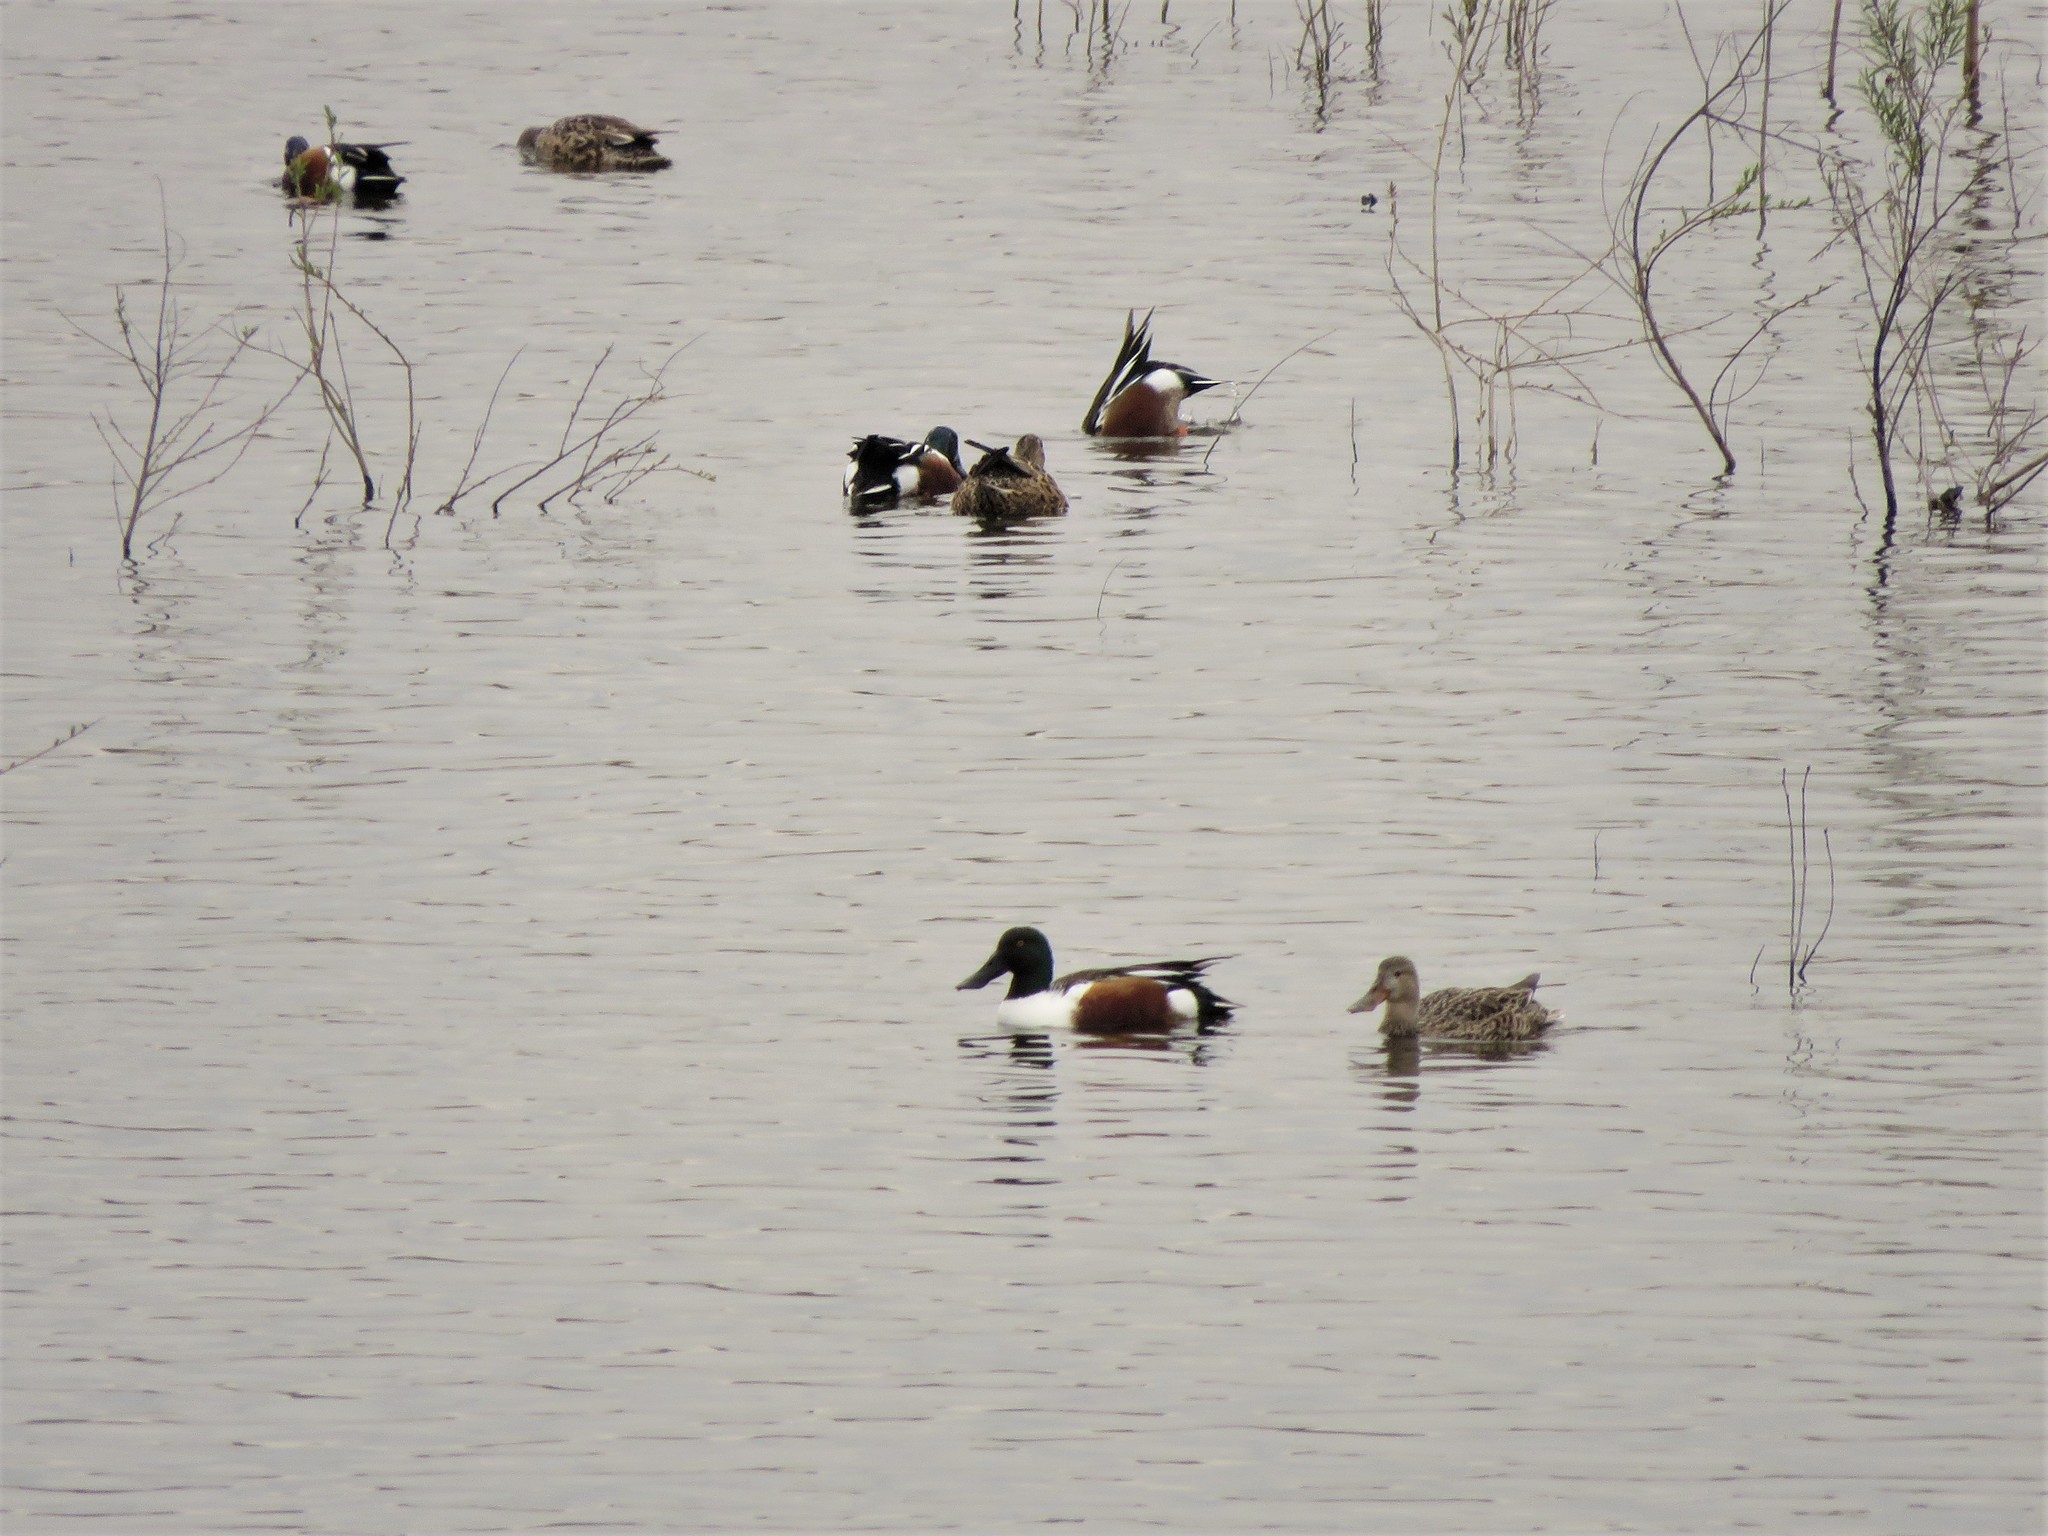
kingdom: Animalia
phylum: Chordata
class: Aves
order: Anseriformes
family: Anatidae
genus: Spatula
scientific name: Spatula clypeata
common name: Northern shoveler
